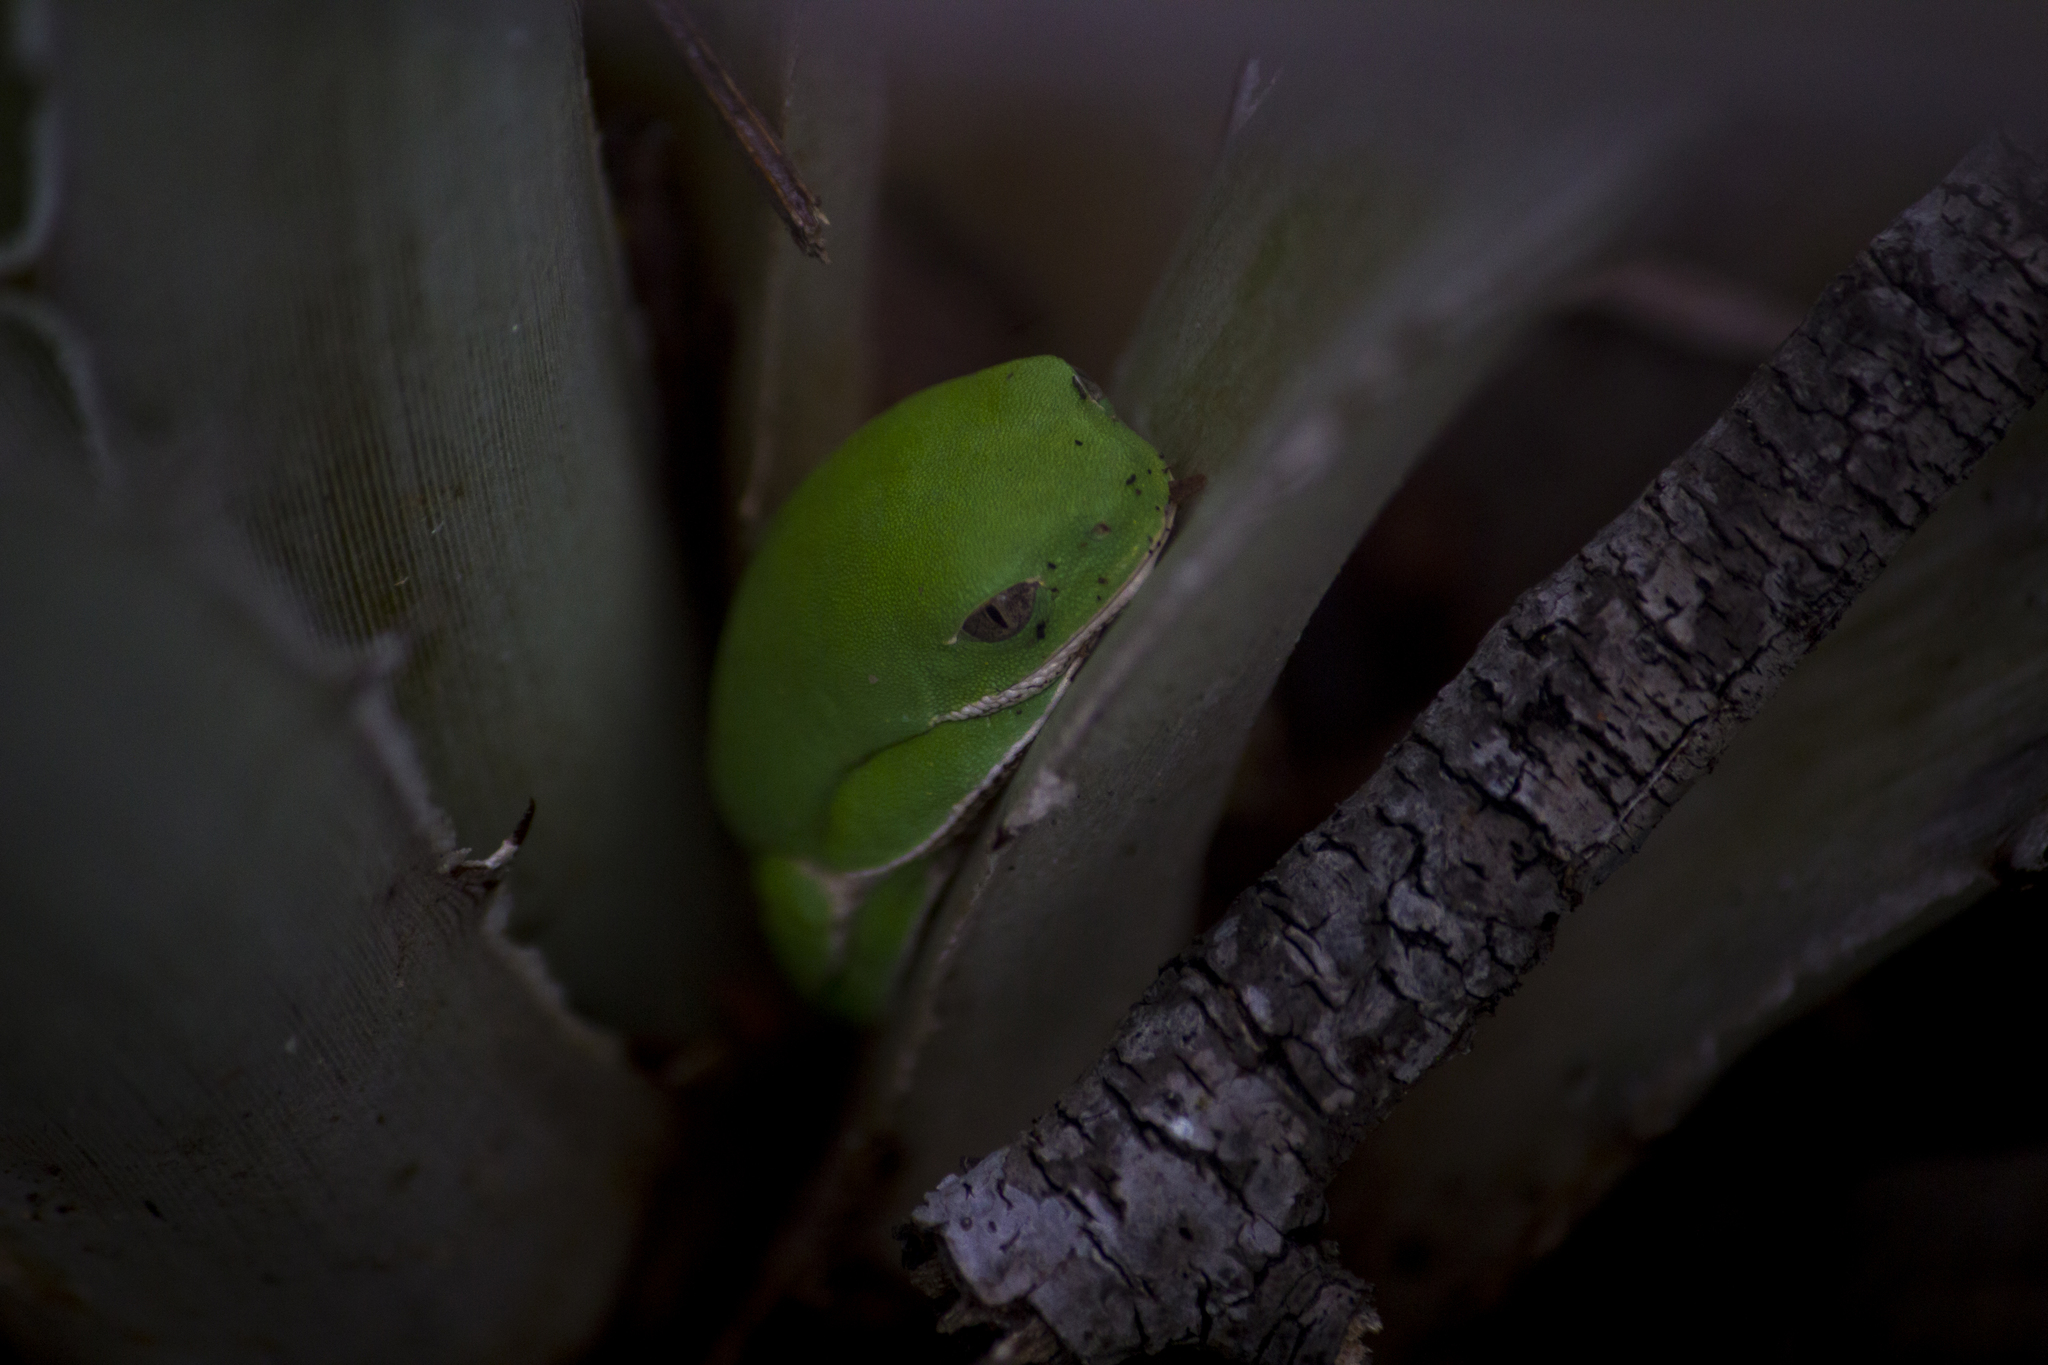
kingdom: Animalia
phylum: Chordata
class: Amphibia
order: Anura
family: Phyllomedusidae
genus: Pithecopus
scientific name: Pithecopus gonzagai
